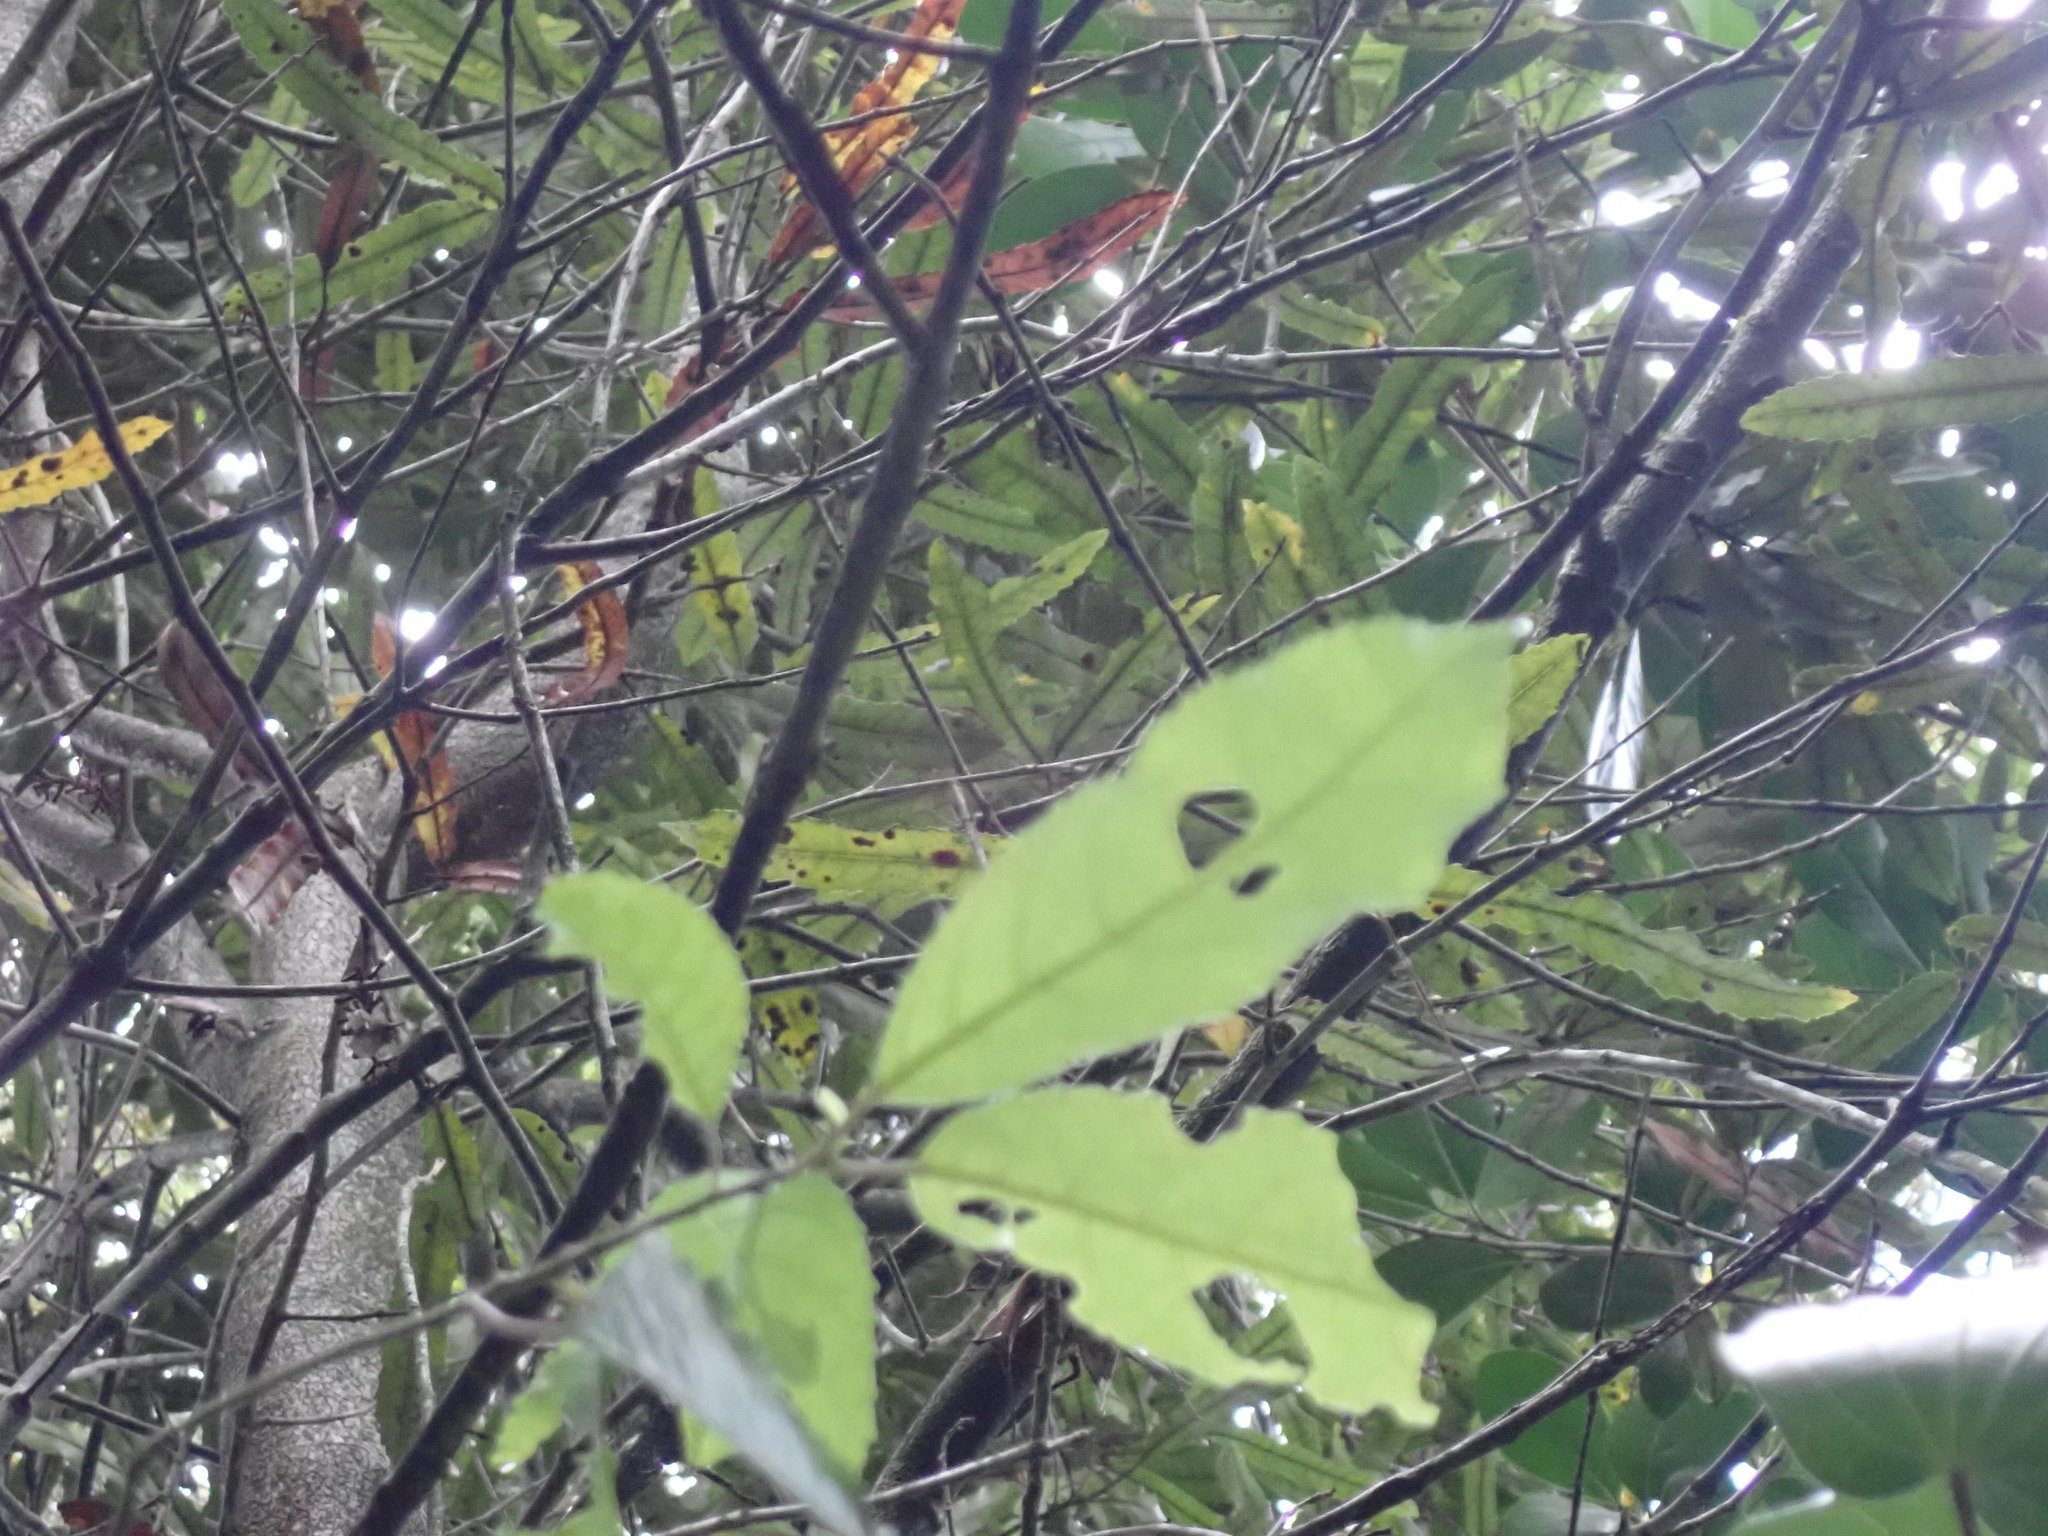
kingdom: Plantae
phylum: Tracheophyta
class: Magnoliopsida
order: Proteales
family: Proteaceae
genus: Knightia
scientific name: Knightia excelsa
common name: New zealand-honeysuckle
